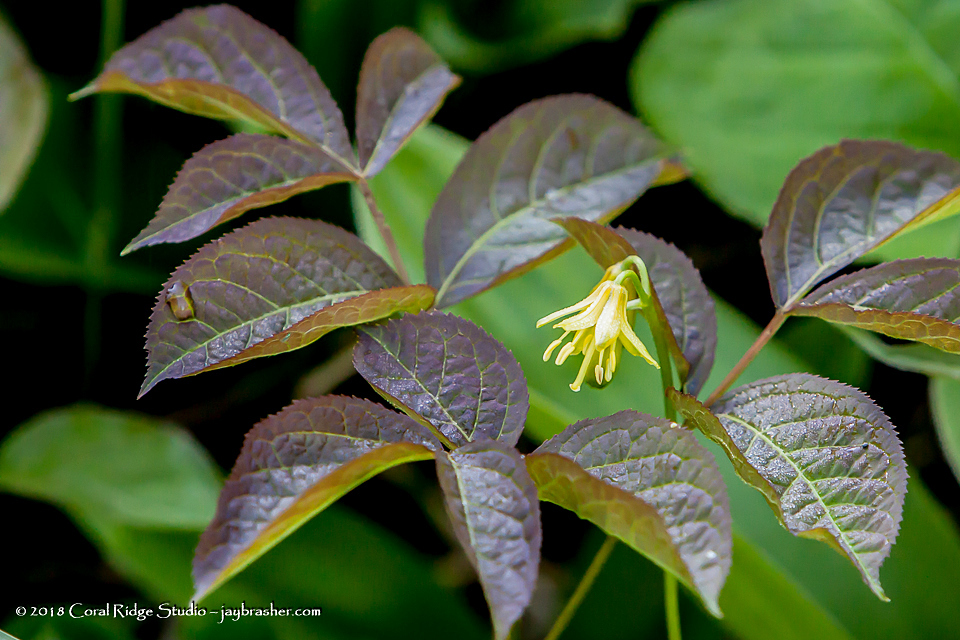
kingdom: Plantae
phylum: Tracheophyta
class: Liliopsida
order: Liliales
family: Liliaceae
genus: Clintonia
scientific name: Clintonia borealis
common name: Yellow clintonia
